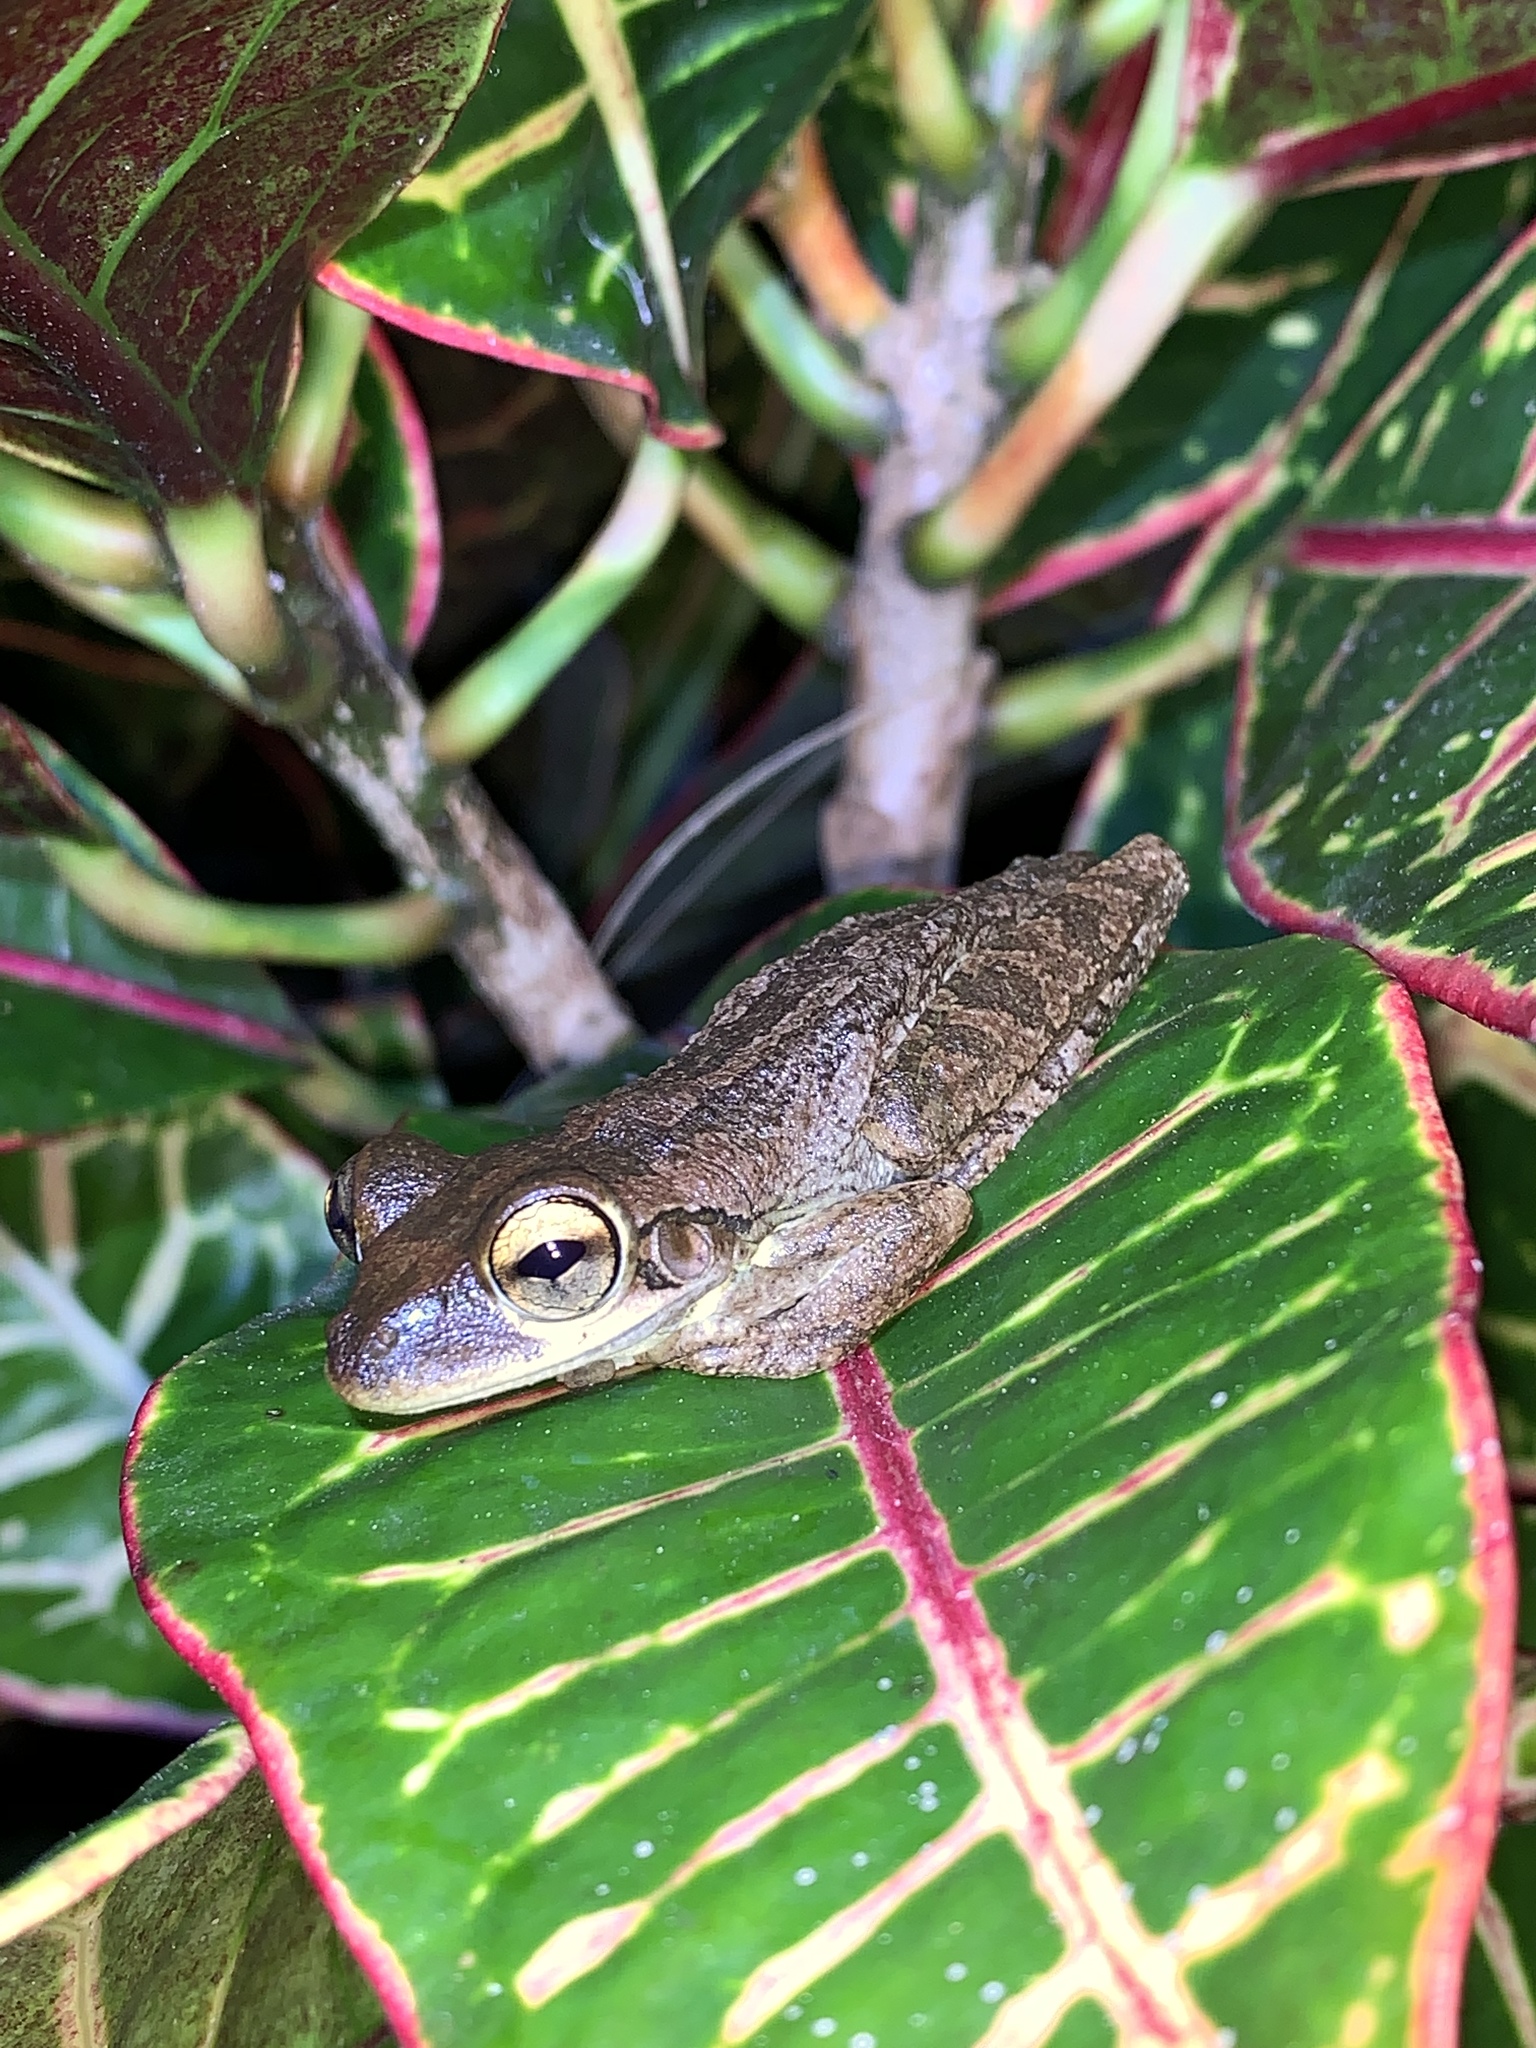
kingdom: Animalia
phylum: Chordata
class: Amphibia
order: Anura
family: Hylidae
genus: Osteopilus
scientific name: Osteopilus septentrionalis
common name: Cuban treefrog
